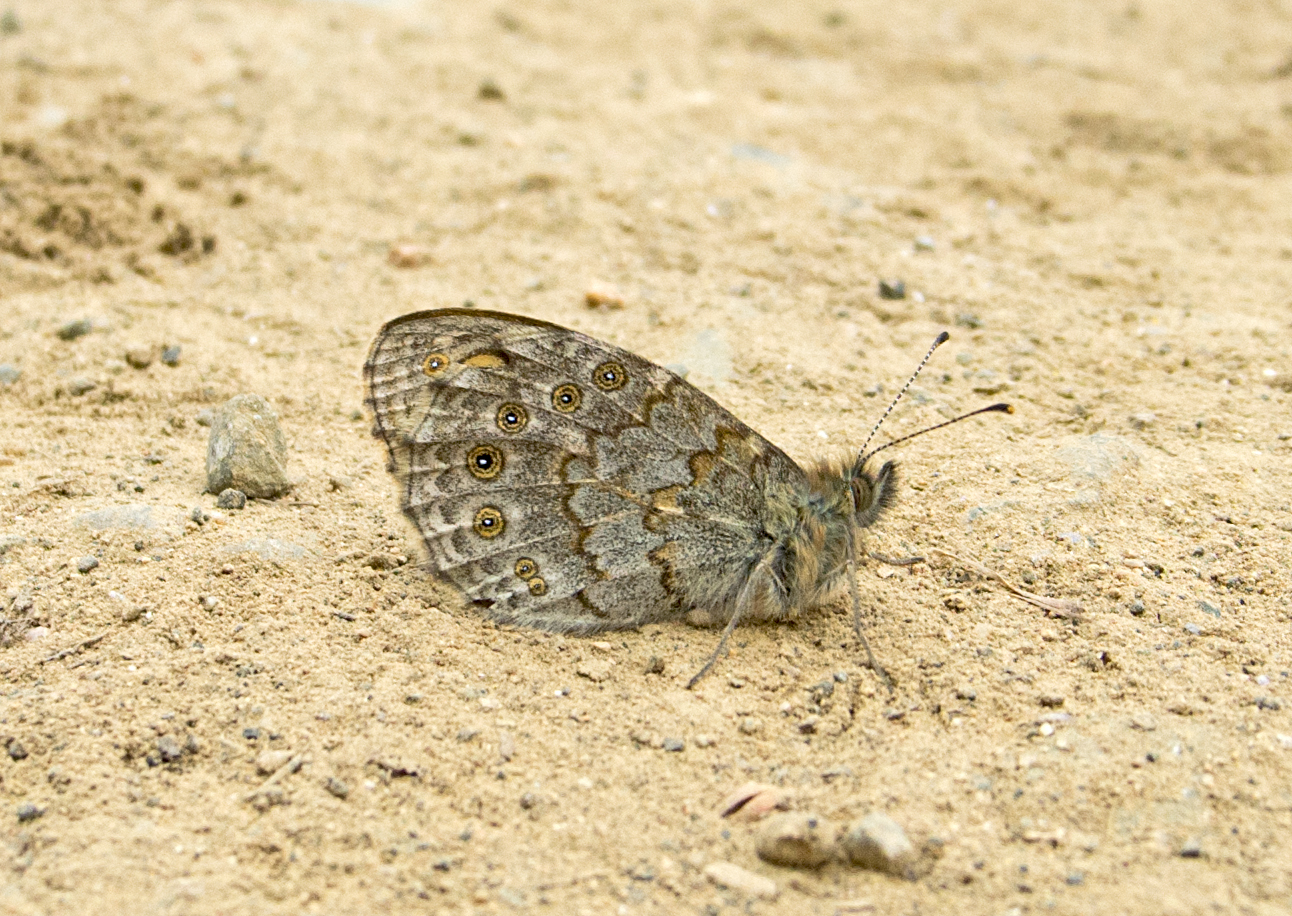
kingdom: Animalia
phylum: Arthropoda
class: Insecta
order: Lepidoptera
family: Nymphalidae
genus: Pararge
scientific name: Pararge Lasiommata megera
